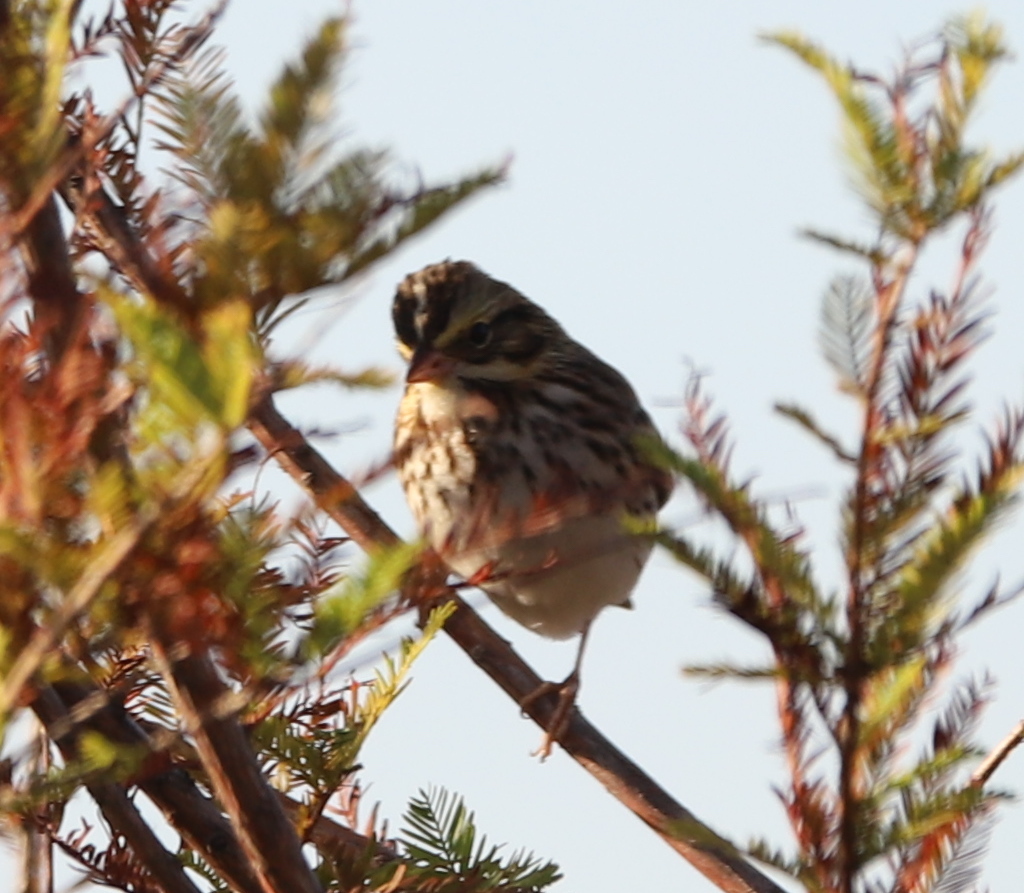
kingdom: Animalia
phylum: Chordata
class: Aves
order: Passeriformes
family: Passerellidae
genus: Passerculus
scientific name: Passerculus sandwichensis
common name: Savannah sparrow
